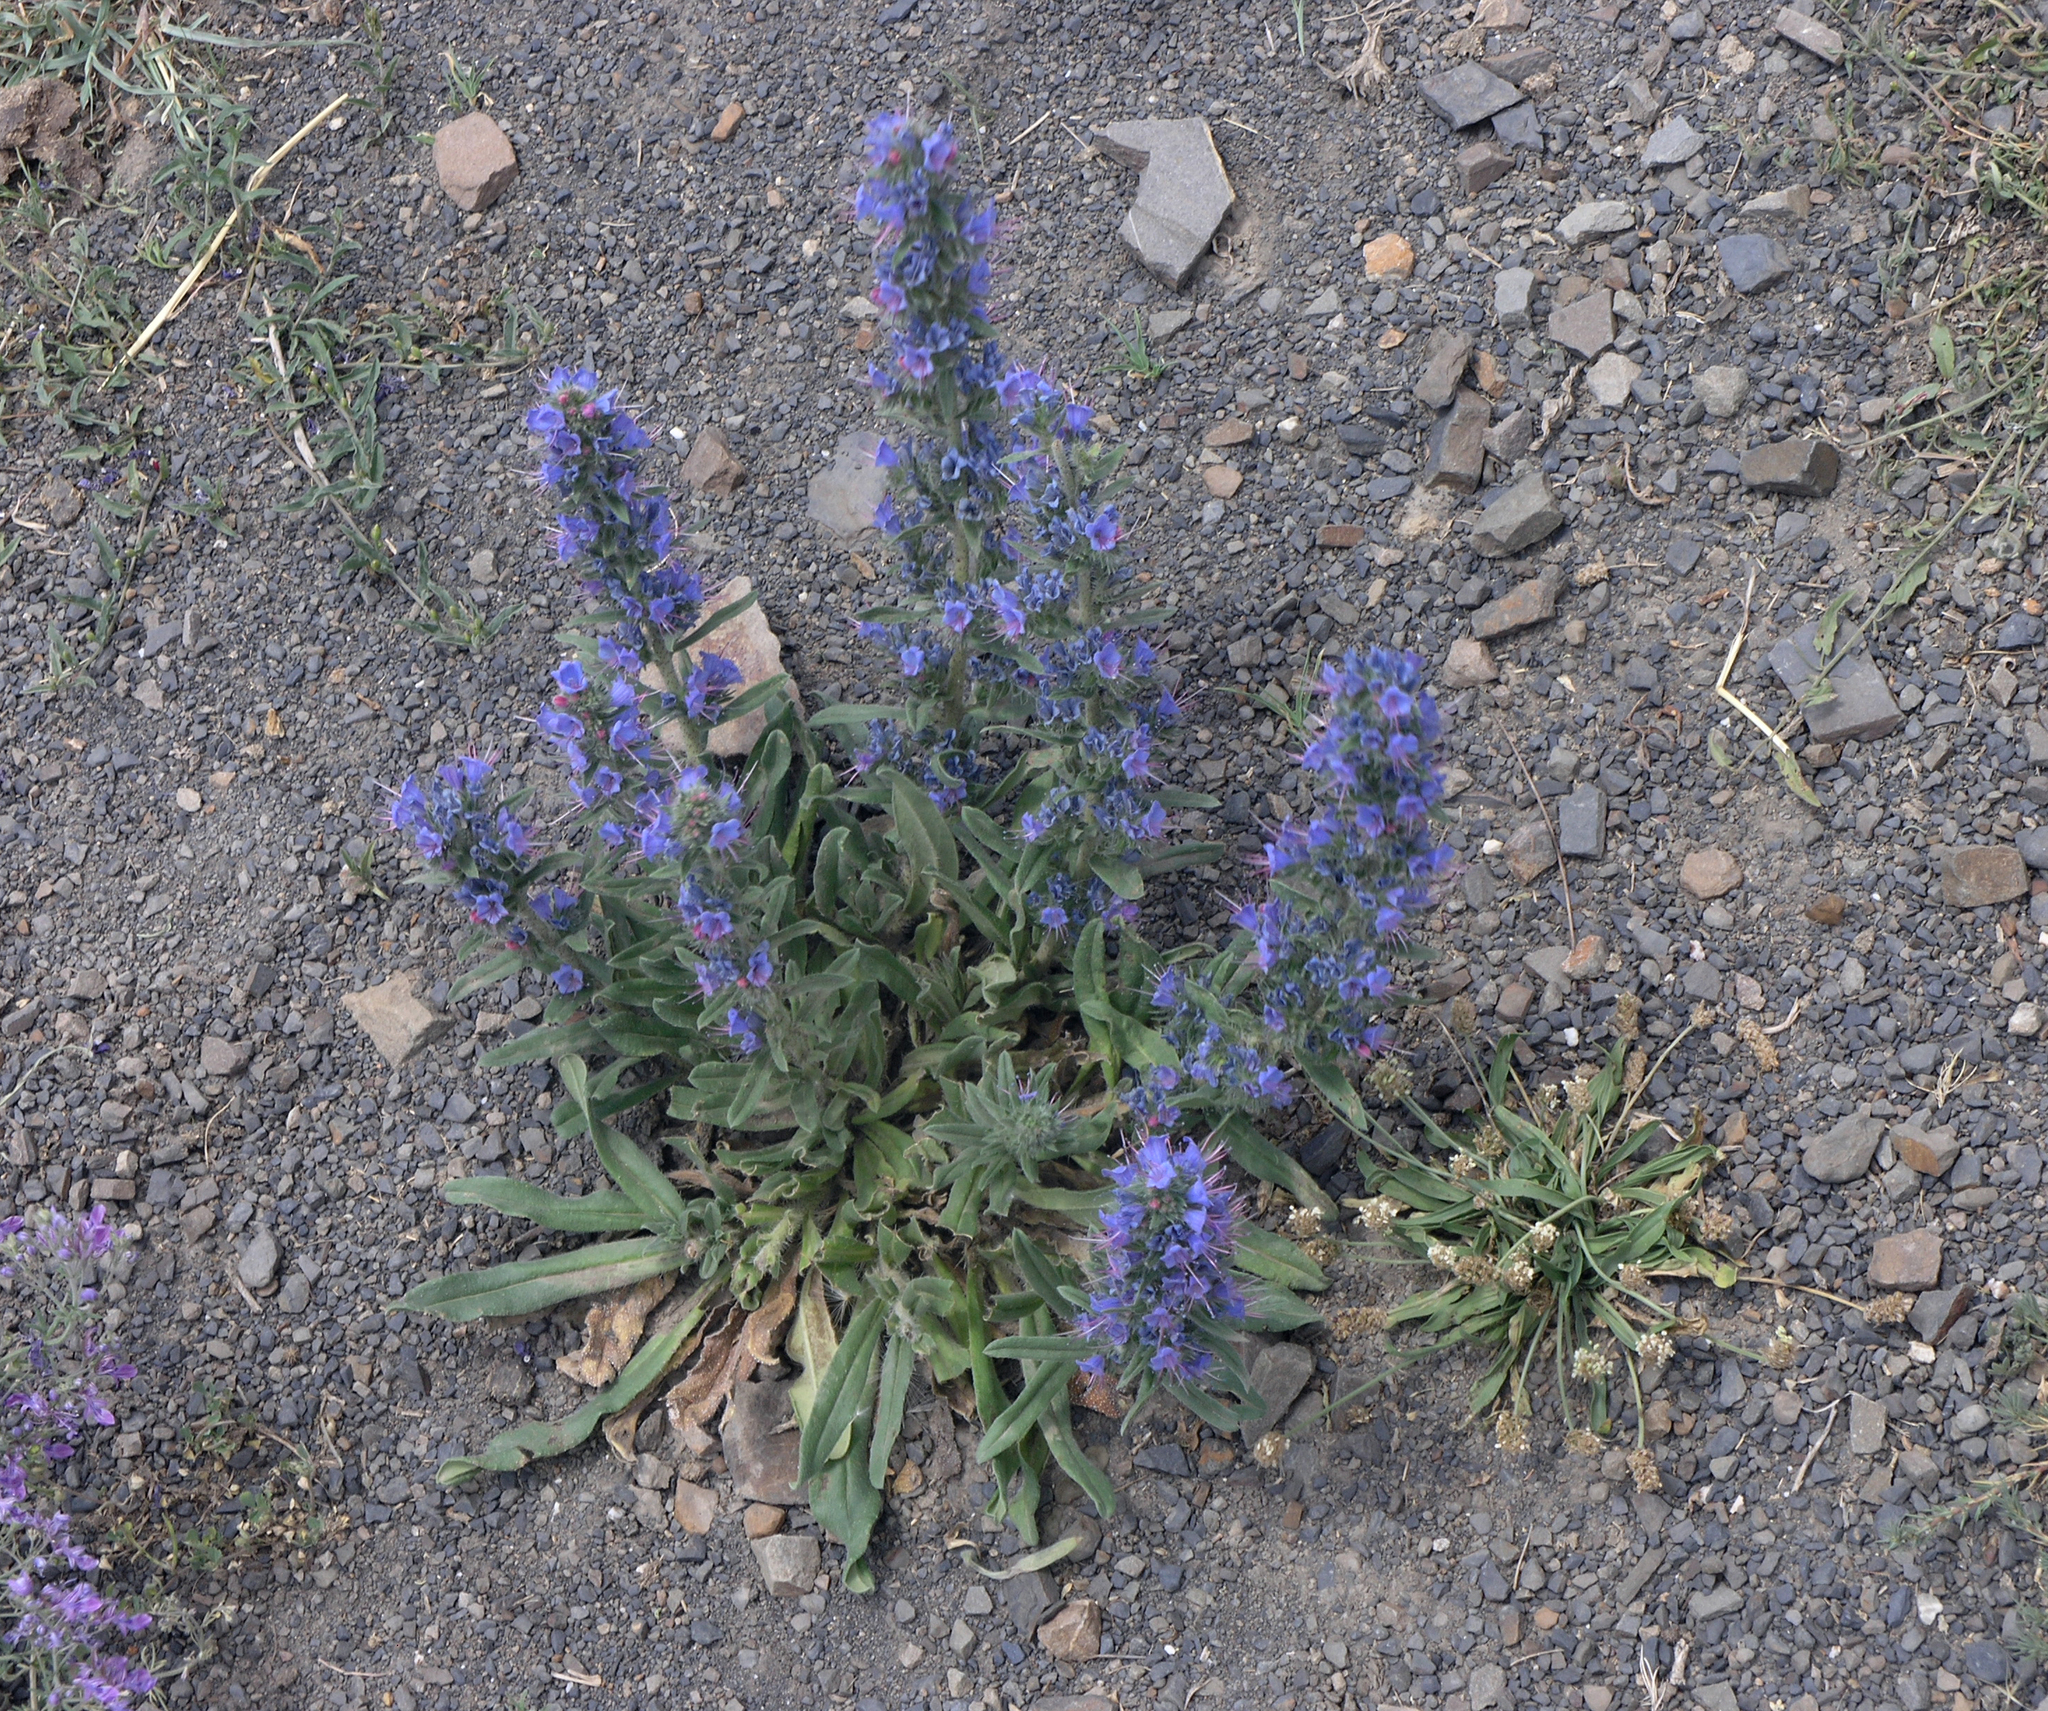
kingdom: Plantae
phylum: Tracheophyta
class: Magnoliopsida
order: Boraginales
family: Boraginaceae
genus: Echium
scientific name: Echium vulgare
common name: Common viper's bugloss
